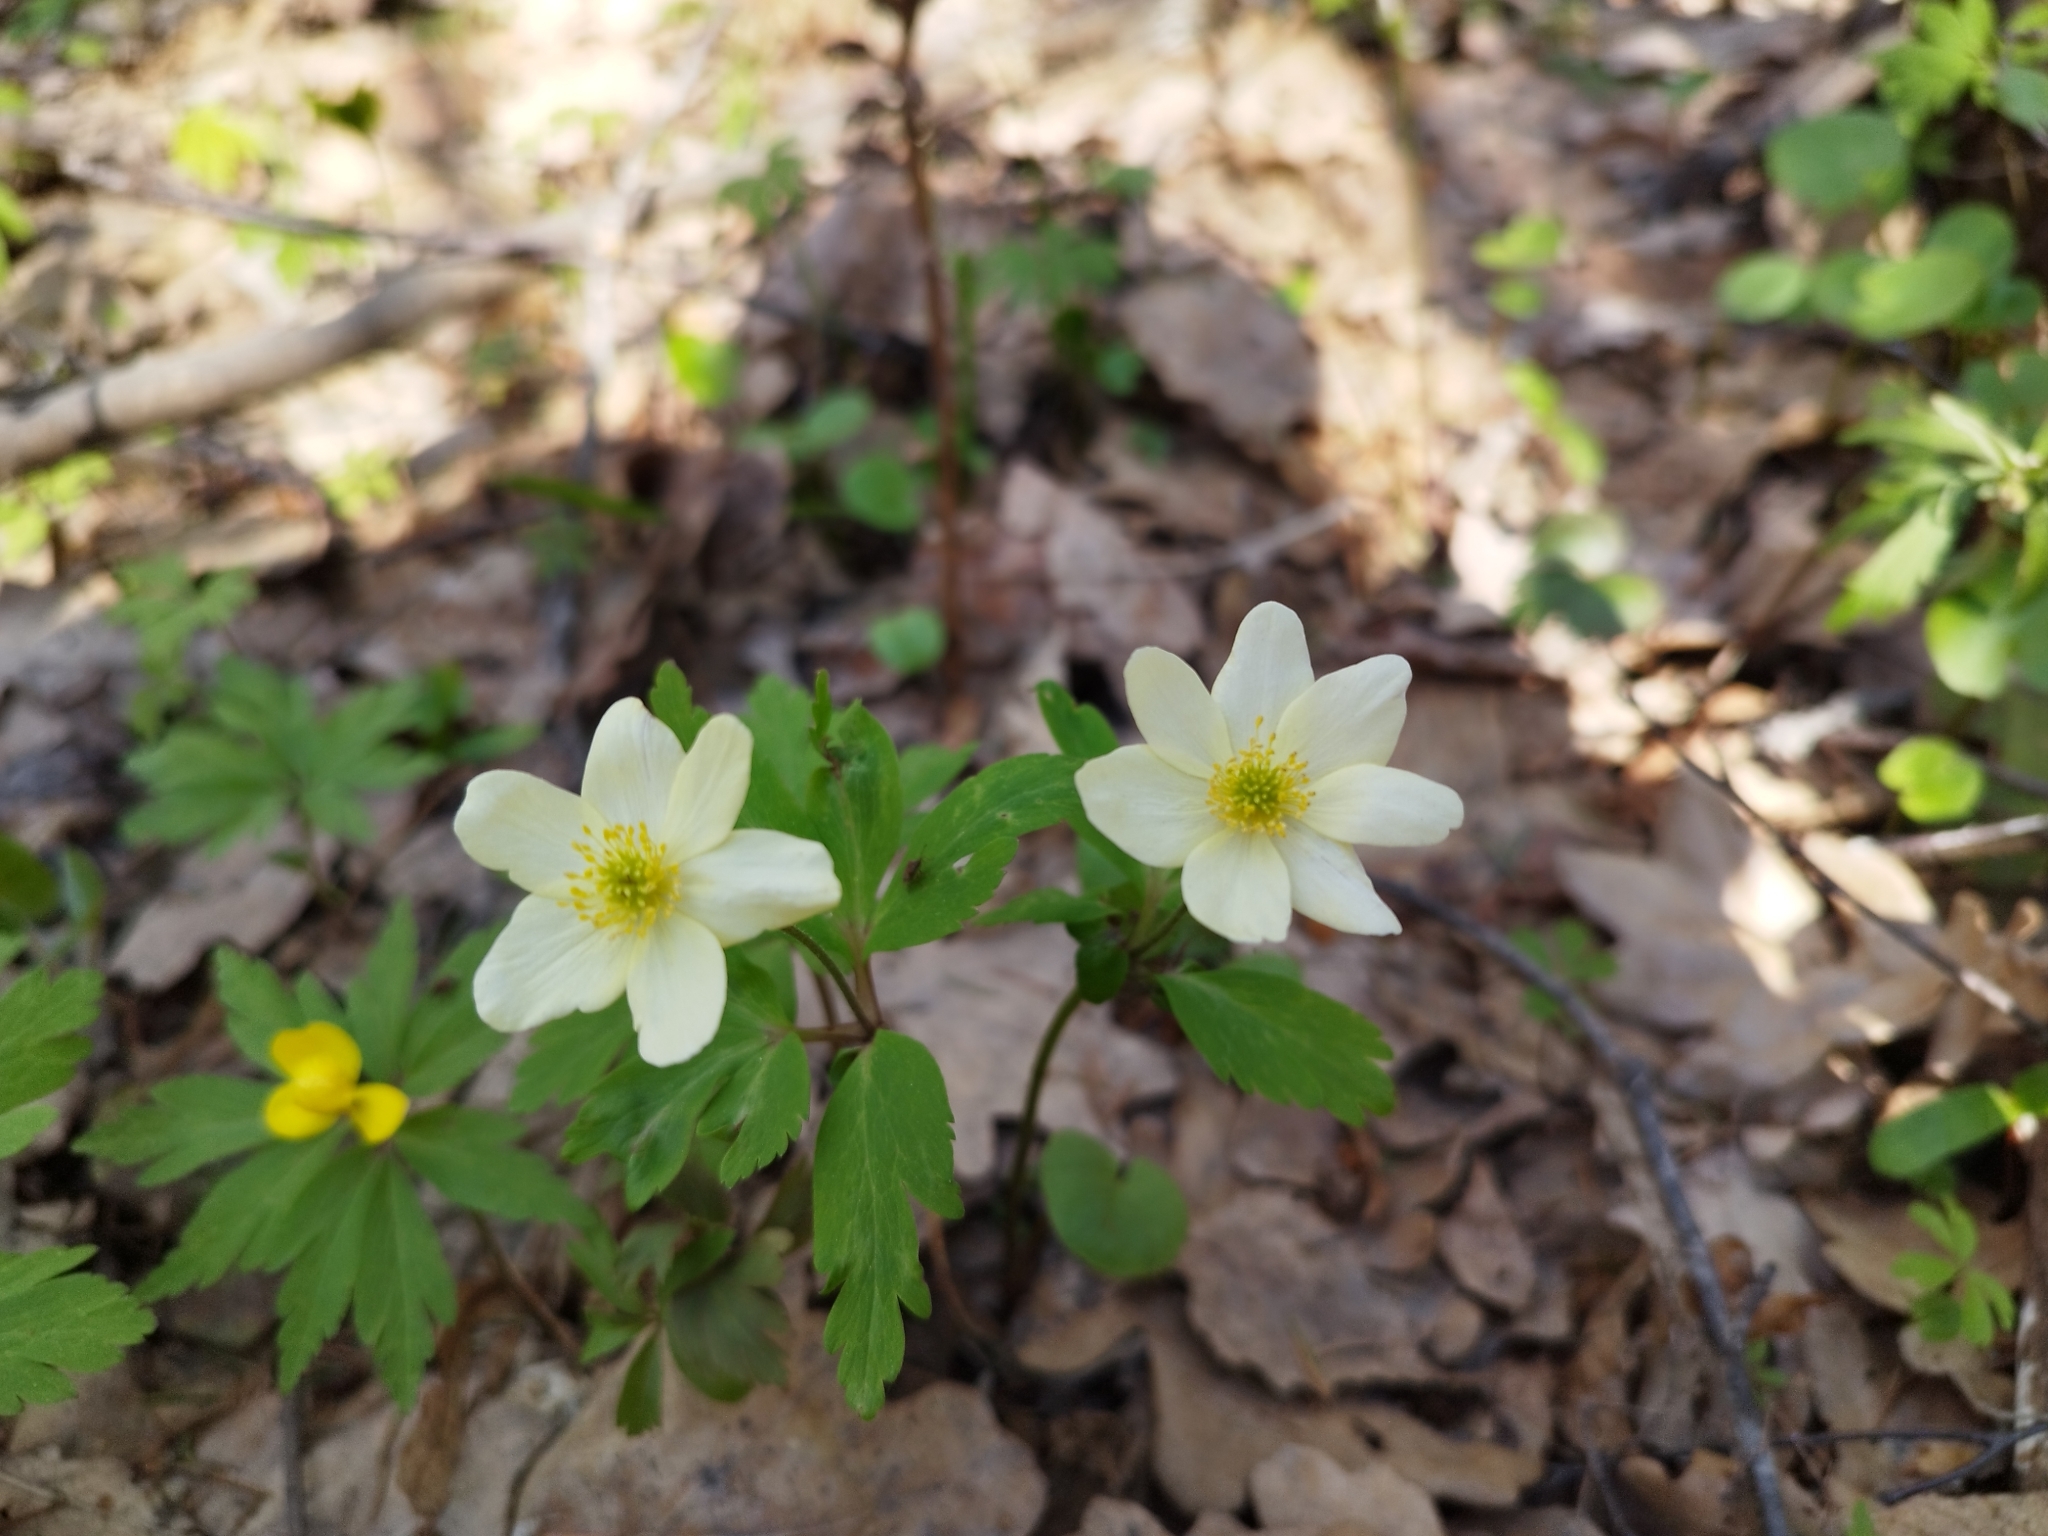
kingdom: Plantae
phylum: Tracheophyta
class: Magnoliopsida
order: Ranunculales
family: Ranunculaceae
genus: Anemone
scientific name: Anemone korzchinskyi
